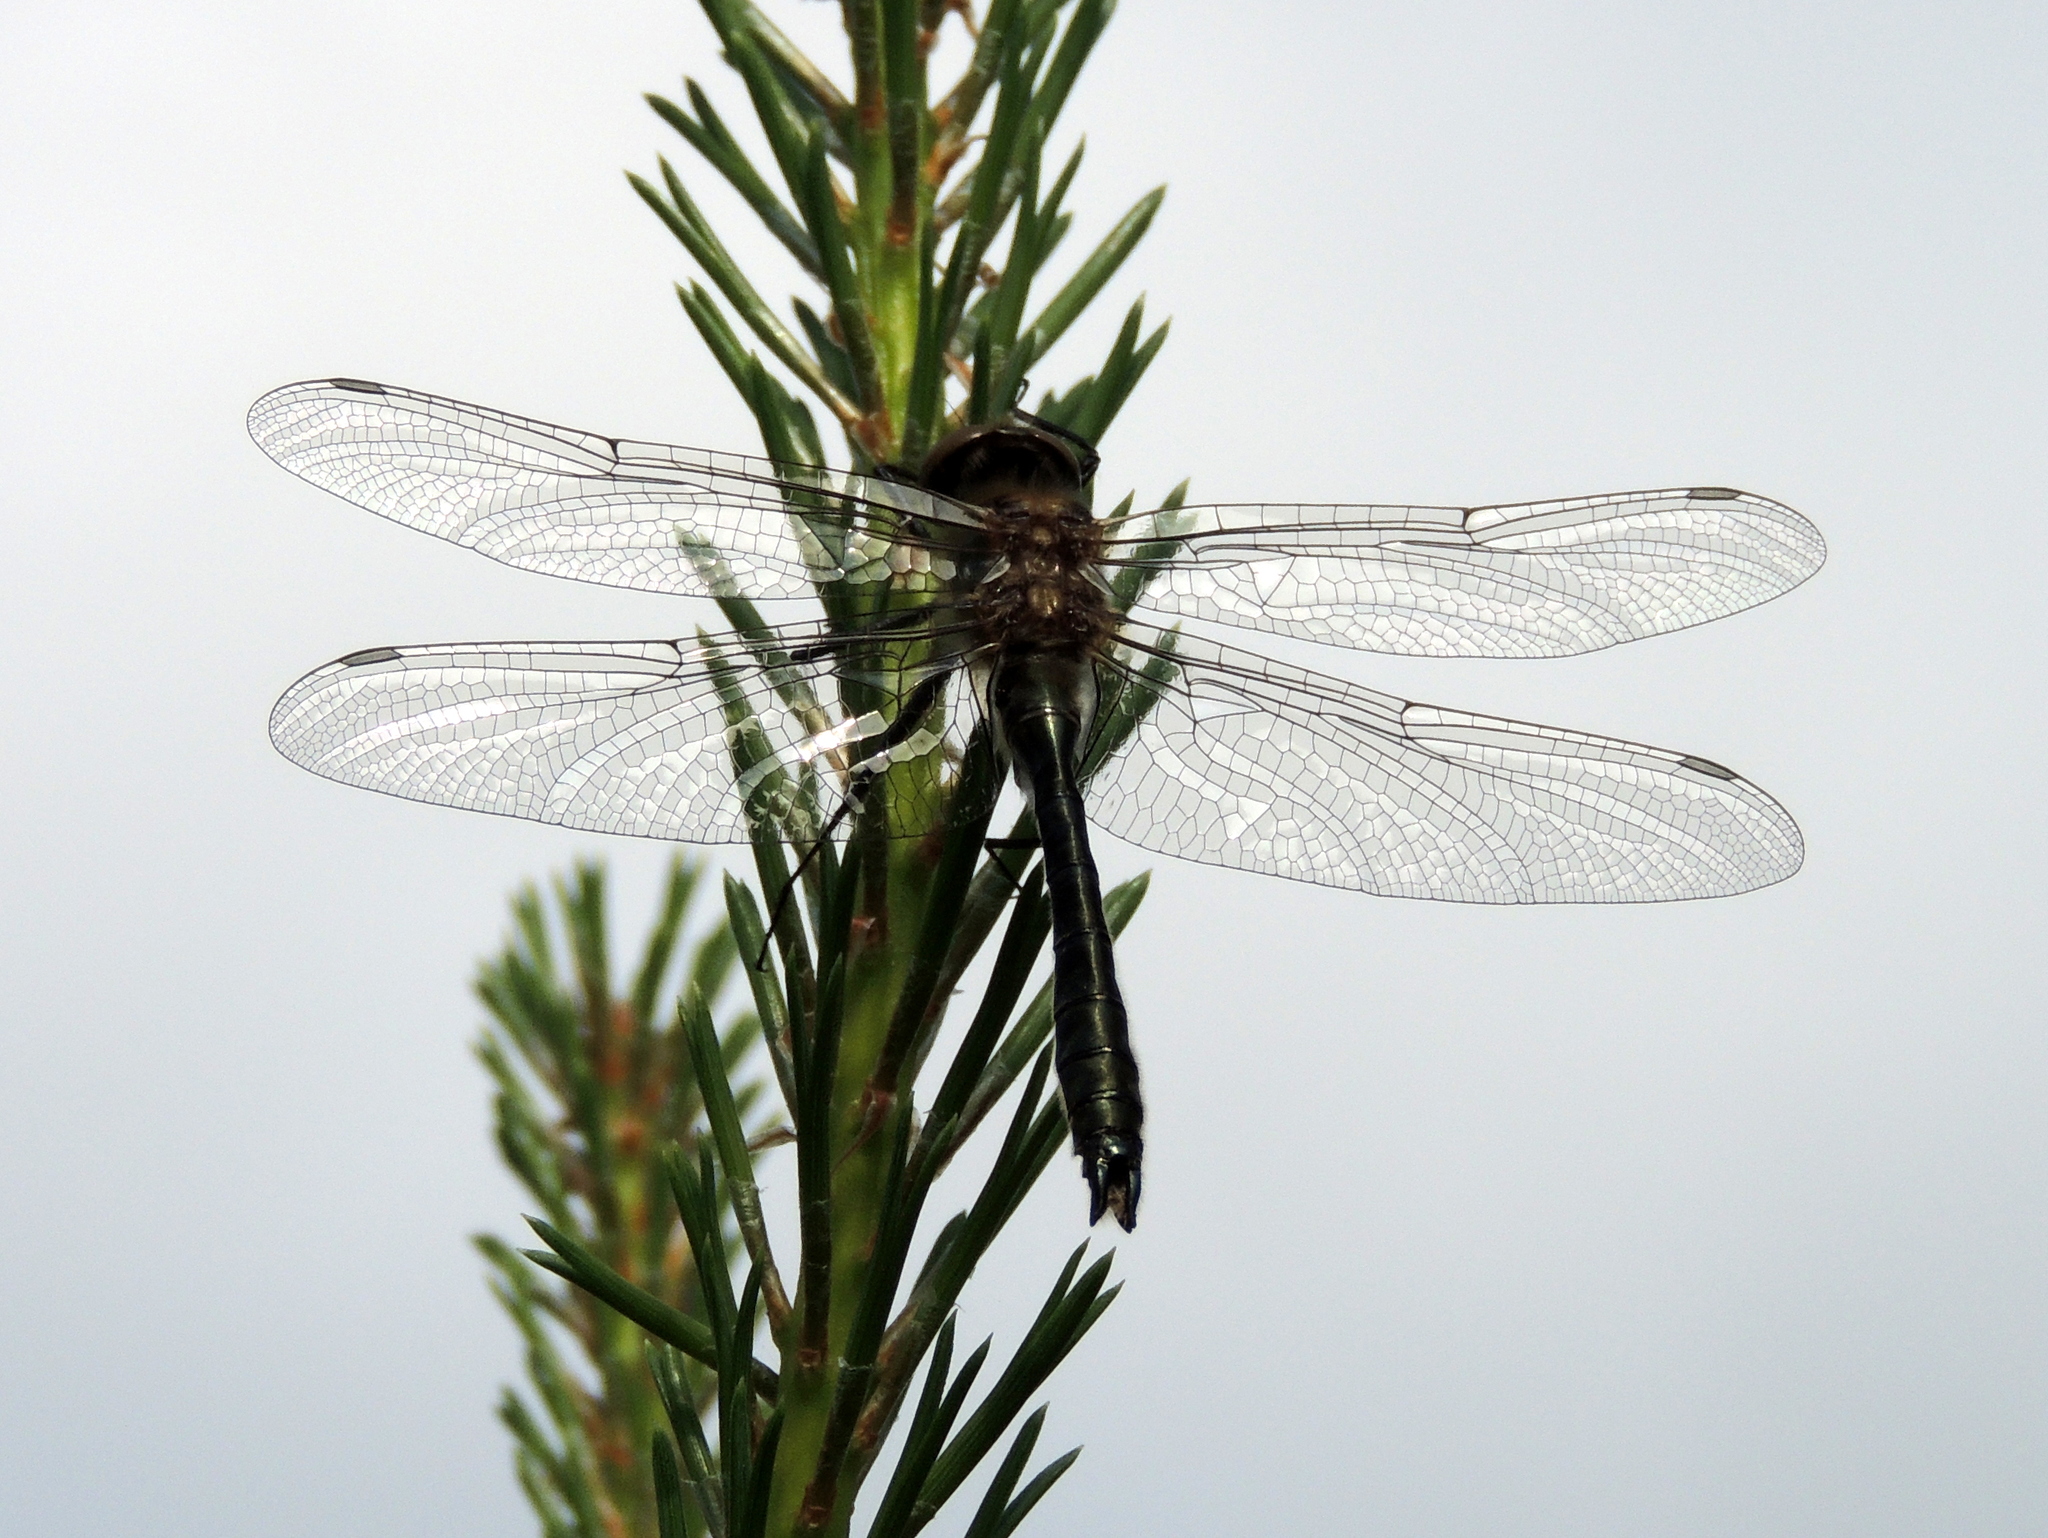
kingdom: Animalia
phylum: Arthropoda
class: Insecta
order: Odonata
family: Corduliidae
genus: Cordulia
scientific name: Cordulia aenea
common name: Downy emerald
